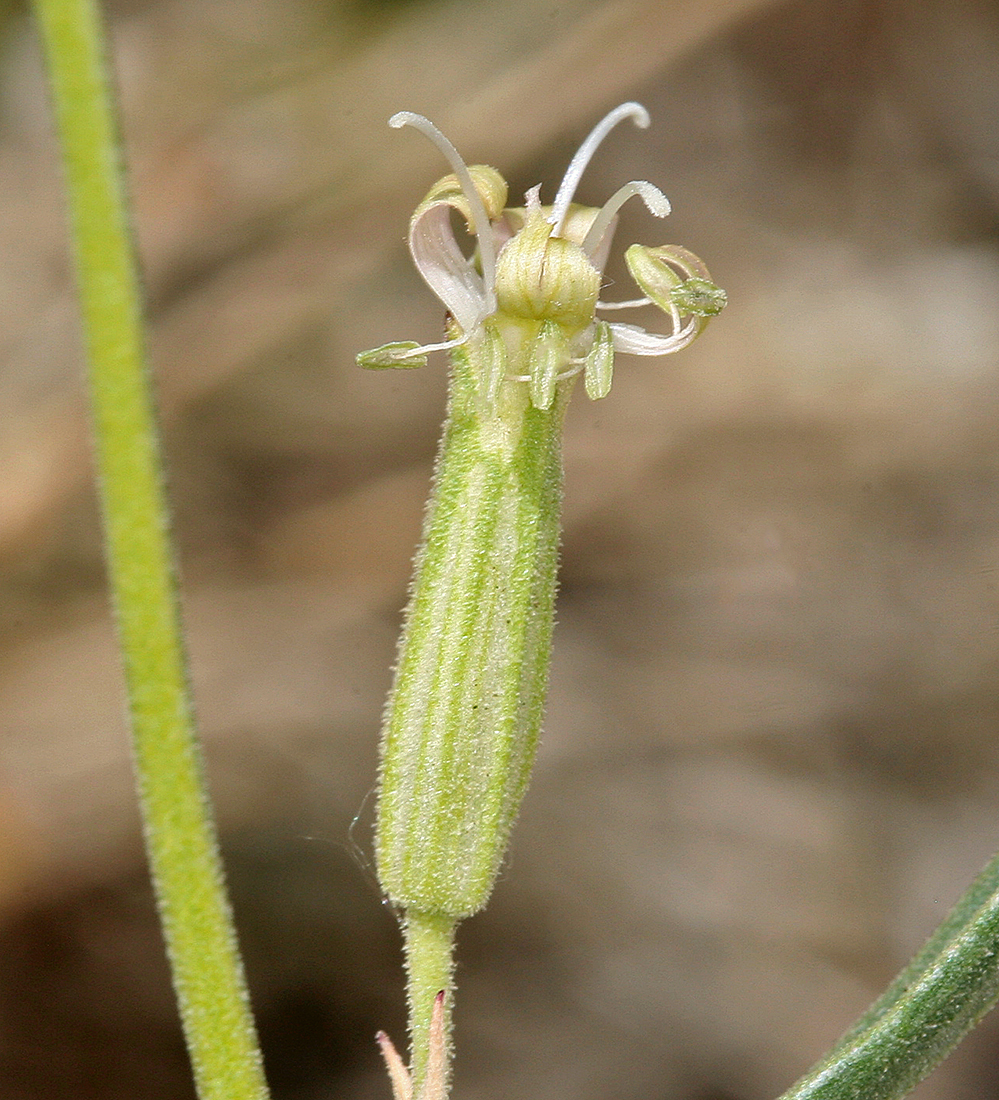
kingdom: Plantae
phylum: Tracheophyta
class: Magnoliopsida
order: Caryophyllales
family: Caryophyllaceae
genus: Silene
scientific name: Silene verecunda
